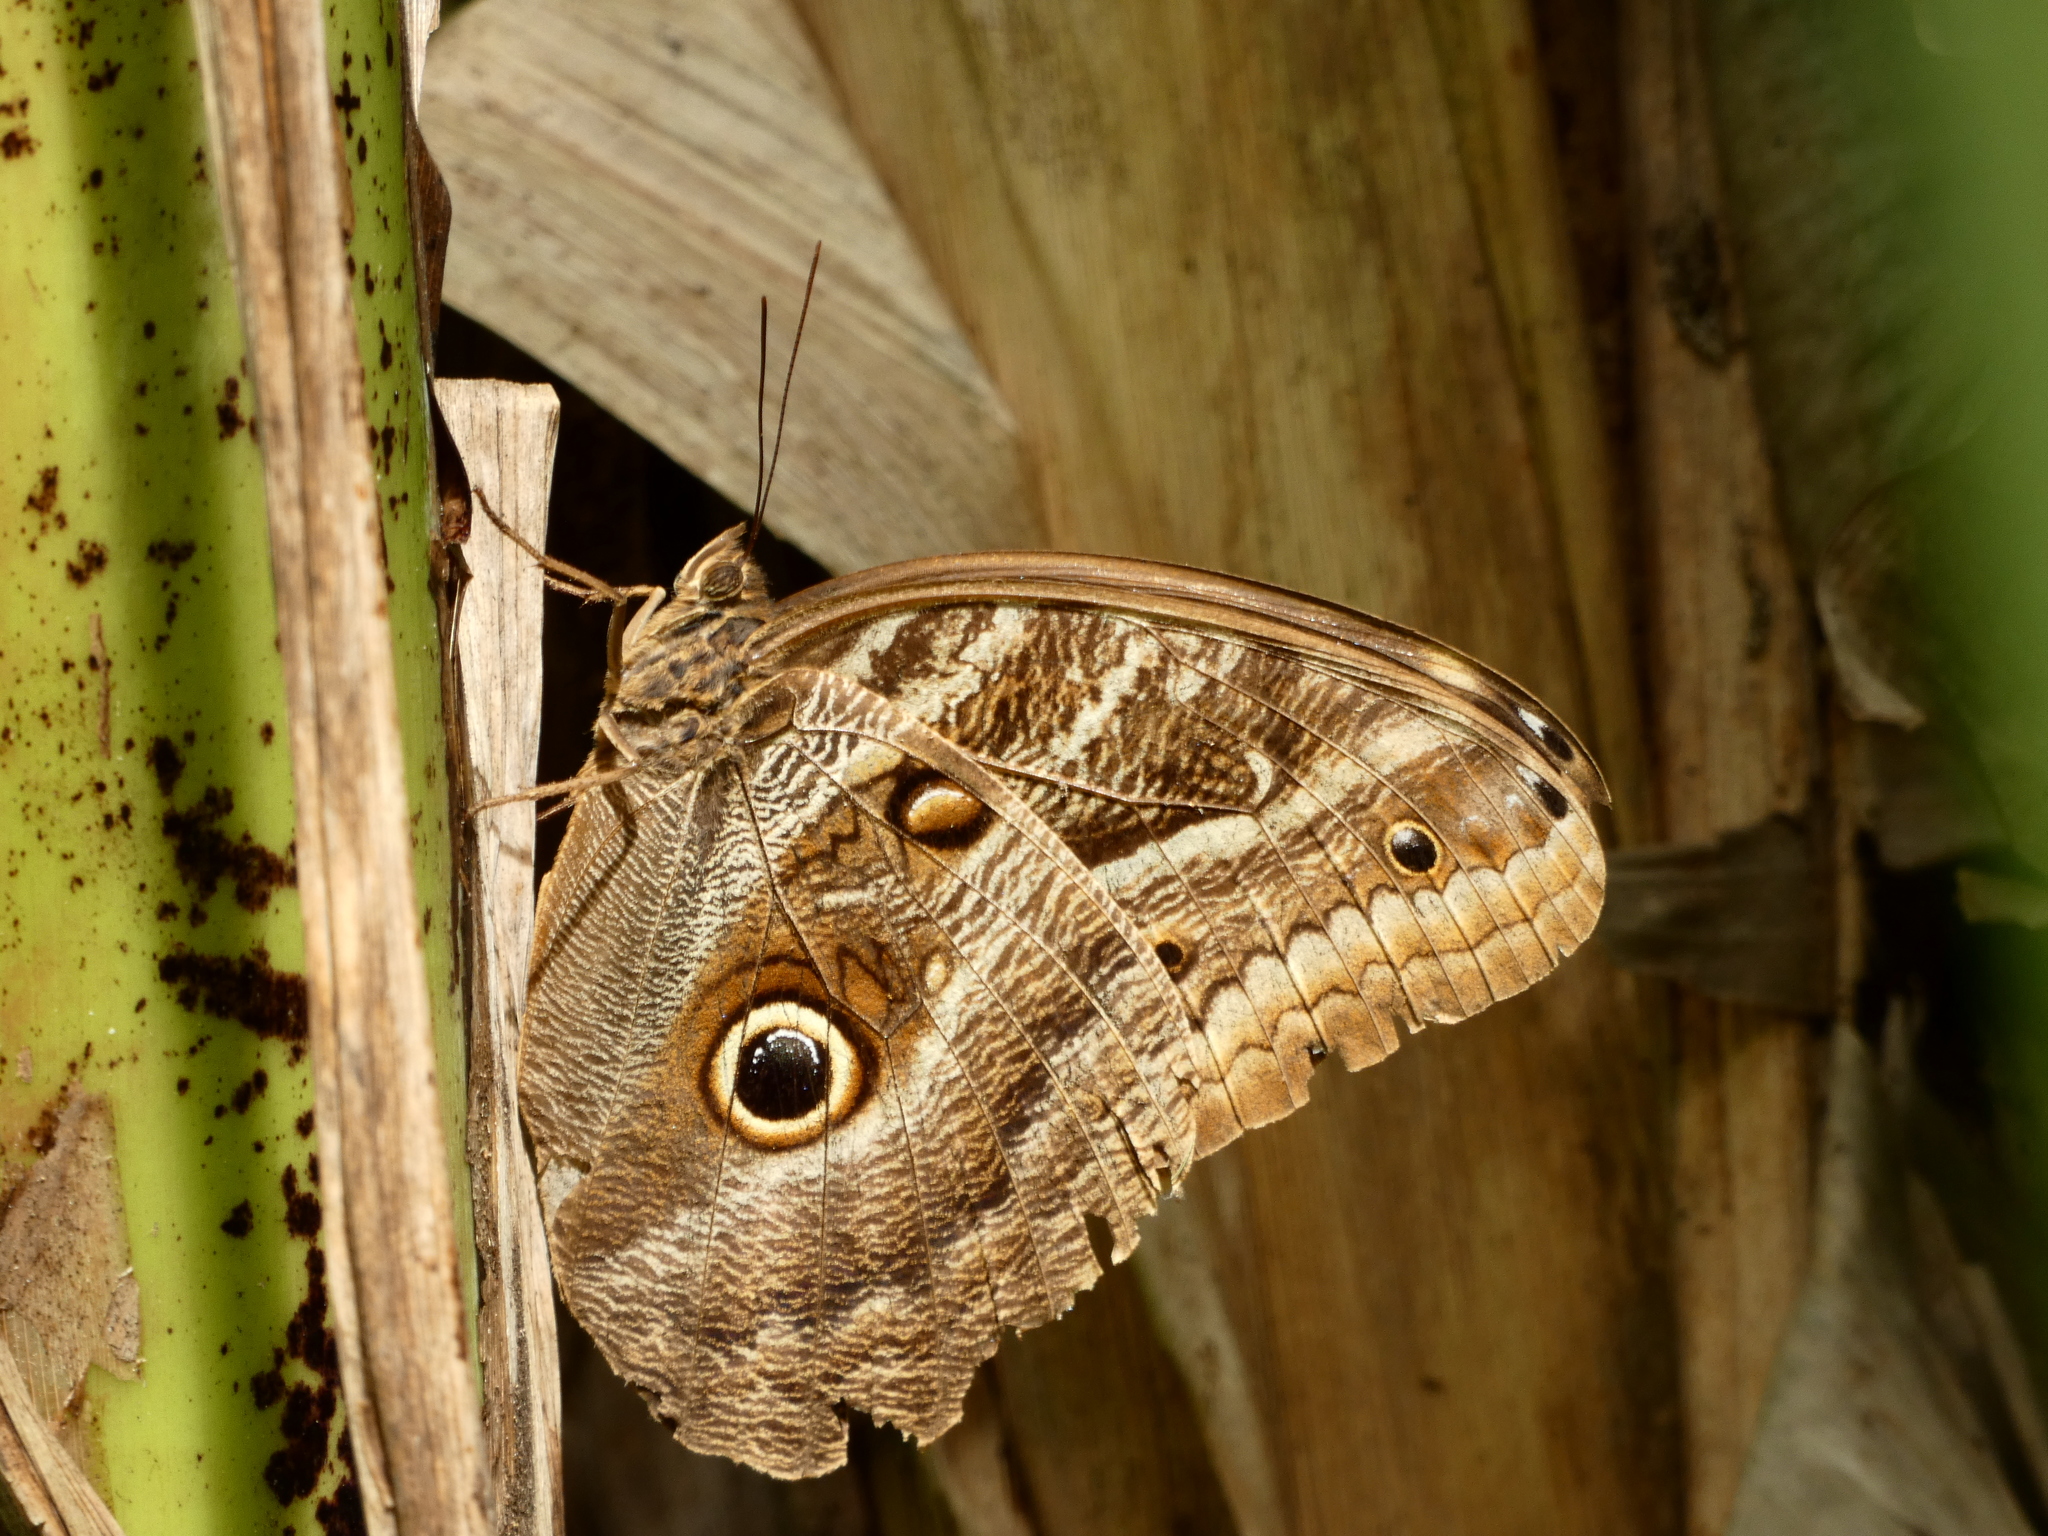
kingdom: Animalia
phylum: Arthropoda
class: Insecta
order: Lepidoptera
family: Nymphalidae
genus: Caligo
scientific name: Caligo illioneus
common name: Dusky owl-butterfly
